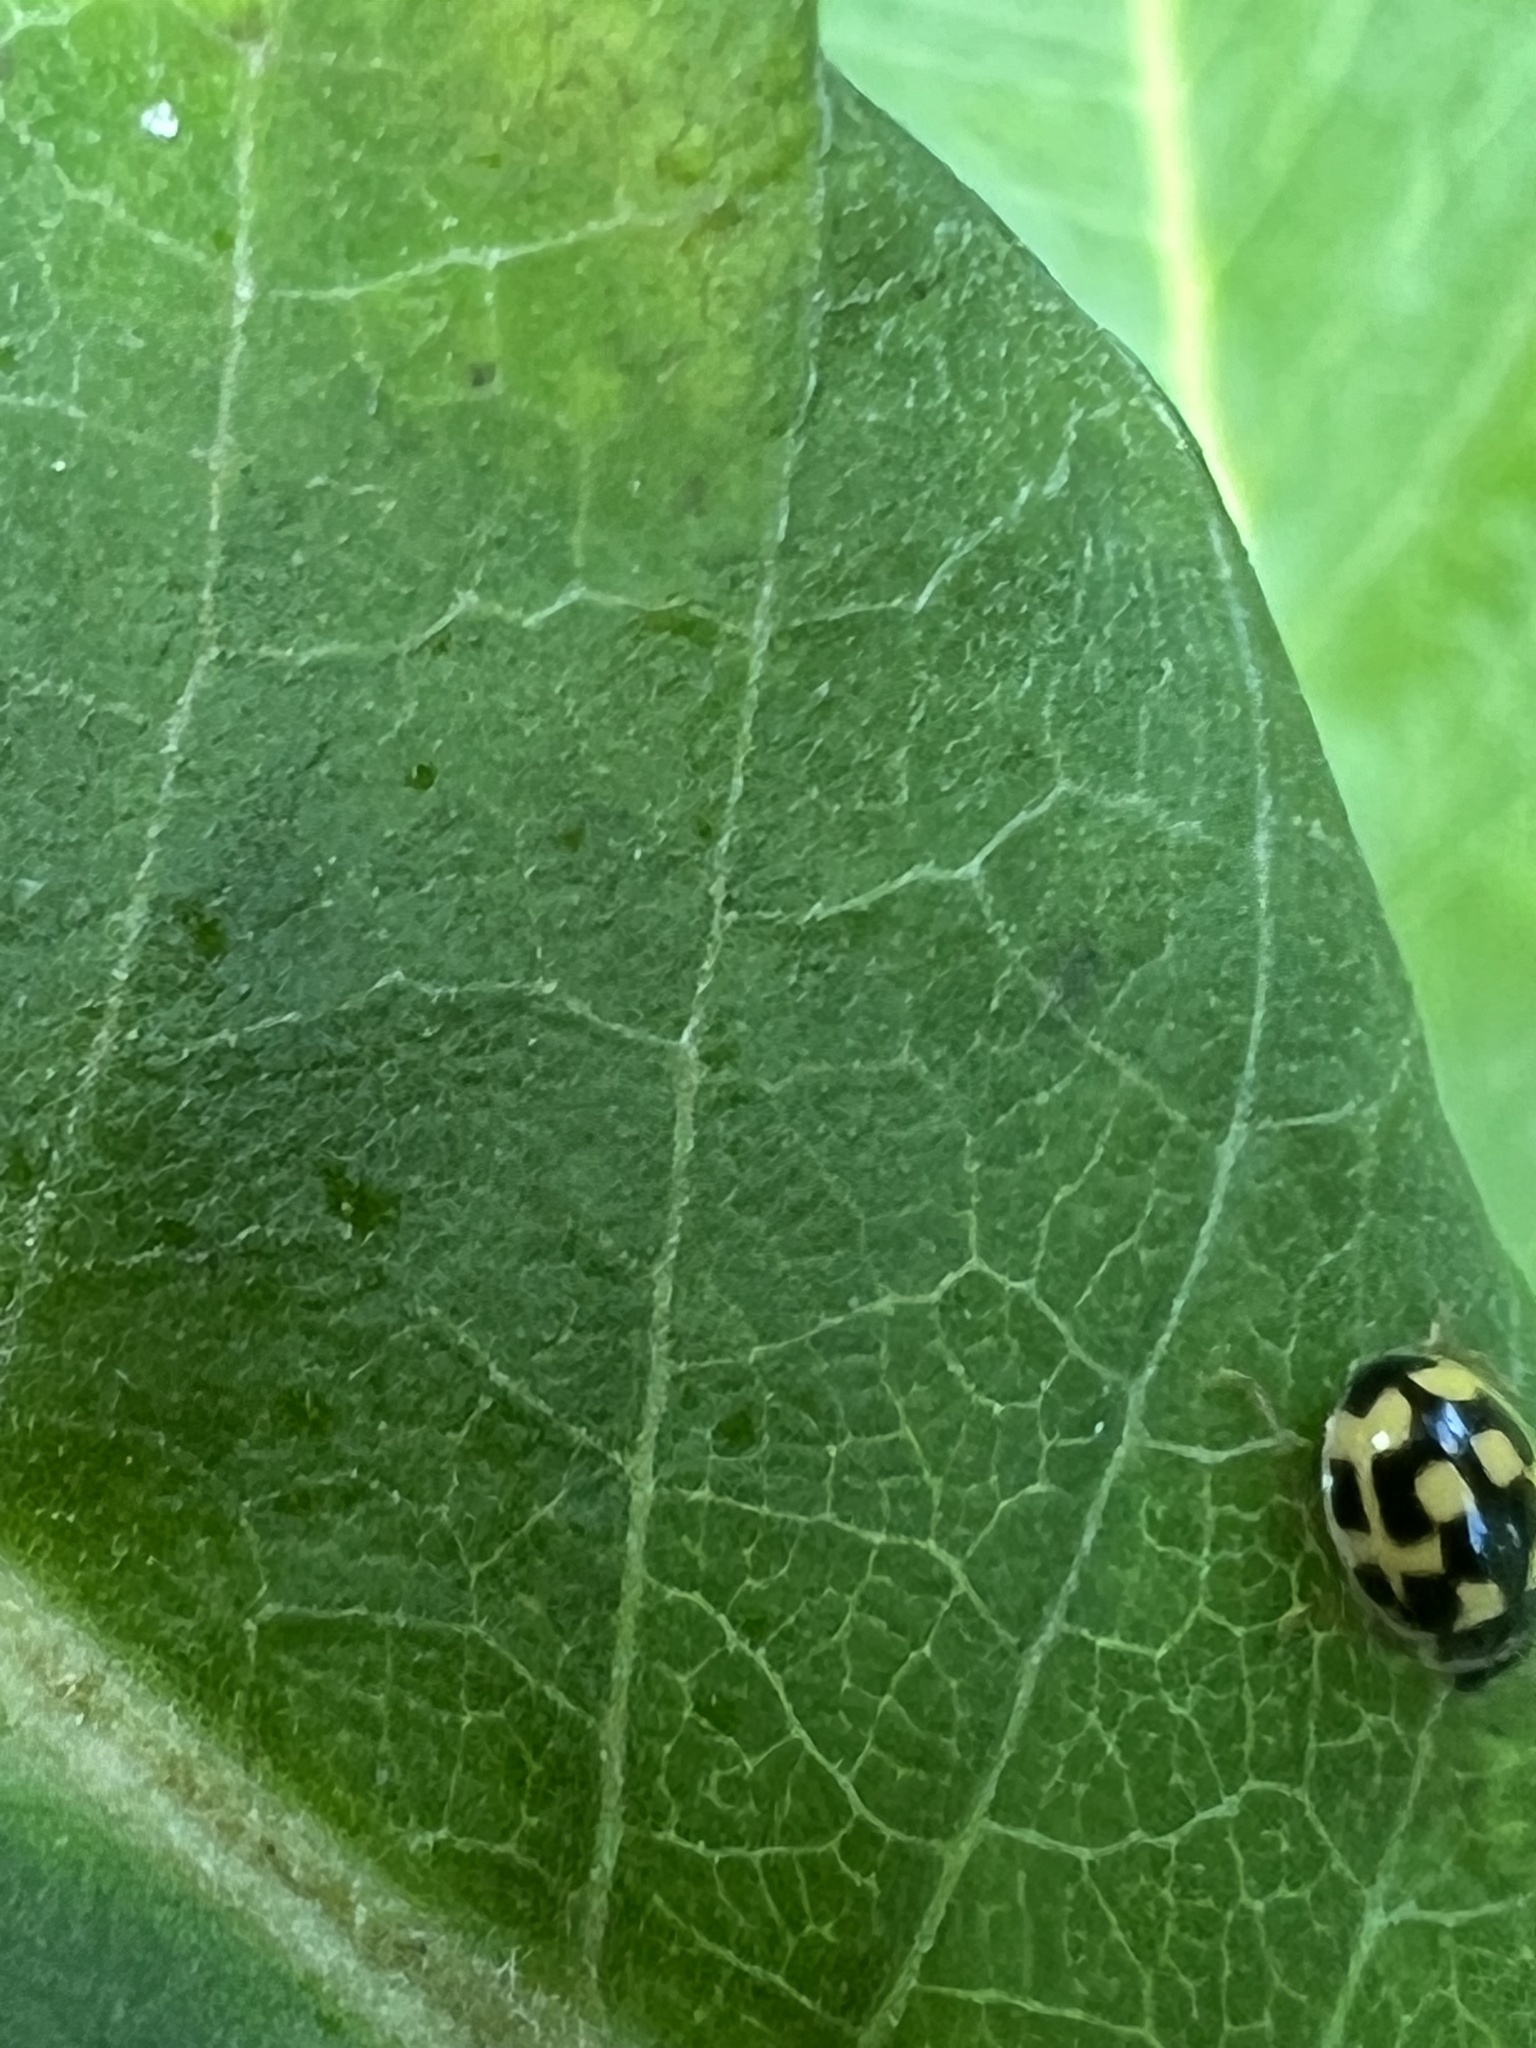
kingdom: Animalia
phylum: Arthropoda
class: Insecta
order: Coleoptera
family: Coccinellidae
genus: Propylaea
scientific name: Propylaea quatuordecimpunctata
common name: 14-spotted ladybird beetle
